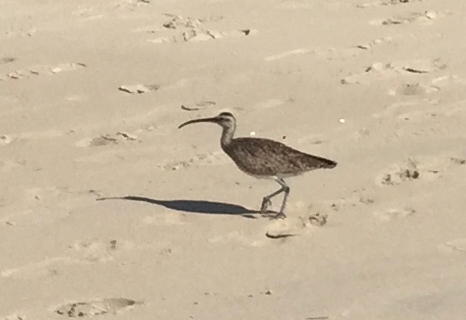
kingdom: Animalia
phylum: Chordata
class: Aves
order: Charadriiformes
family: Scolopacidae
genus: Numenius
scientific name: Numenius phaeopus
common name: Whimbrel
